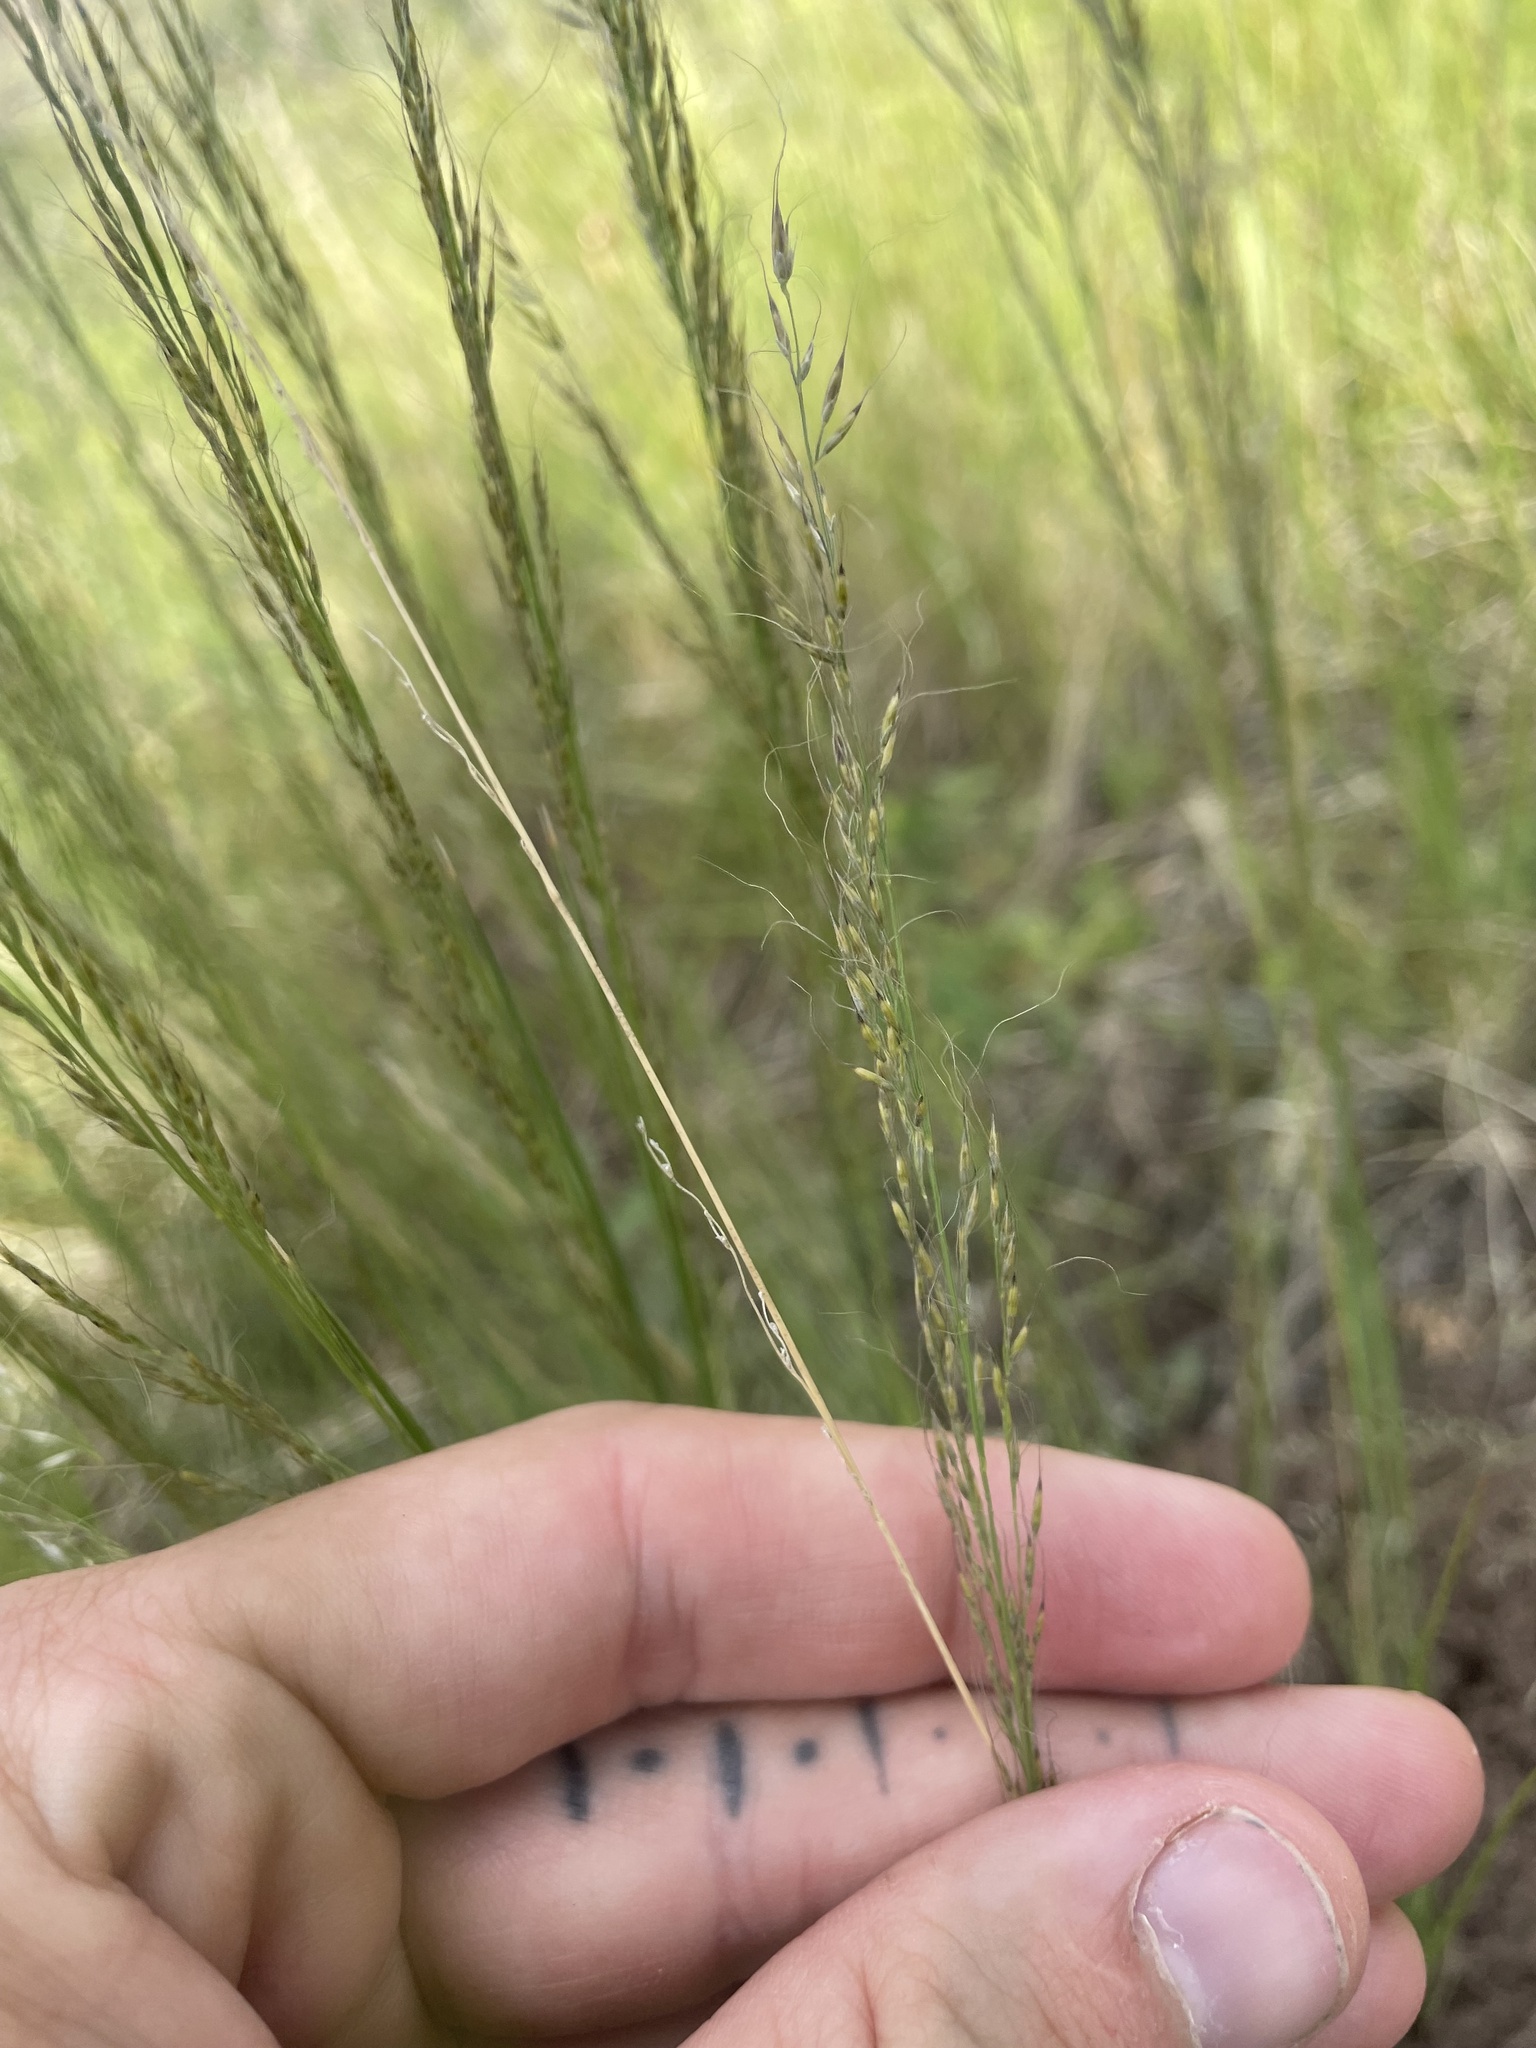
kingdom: Plantae
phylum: Tracheophyta
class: Liliopsida
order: Poales
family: Poaceae
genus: Muhlenbergia
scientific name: Muhlenbergia montana
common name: Mountain muhly
